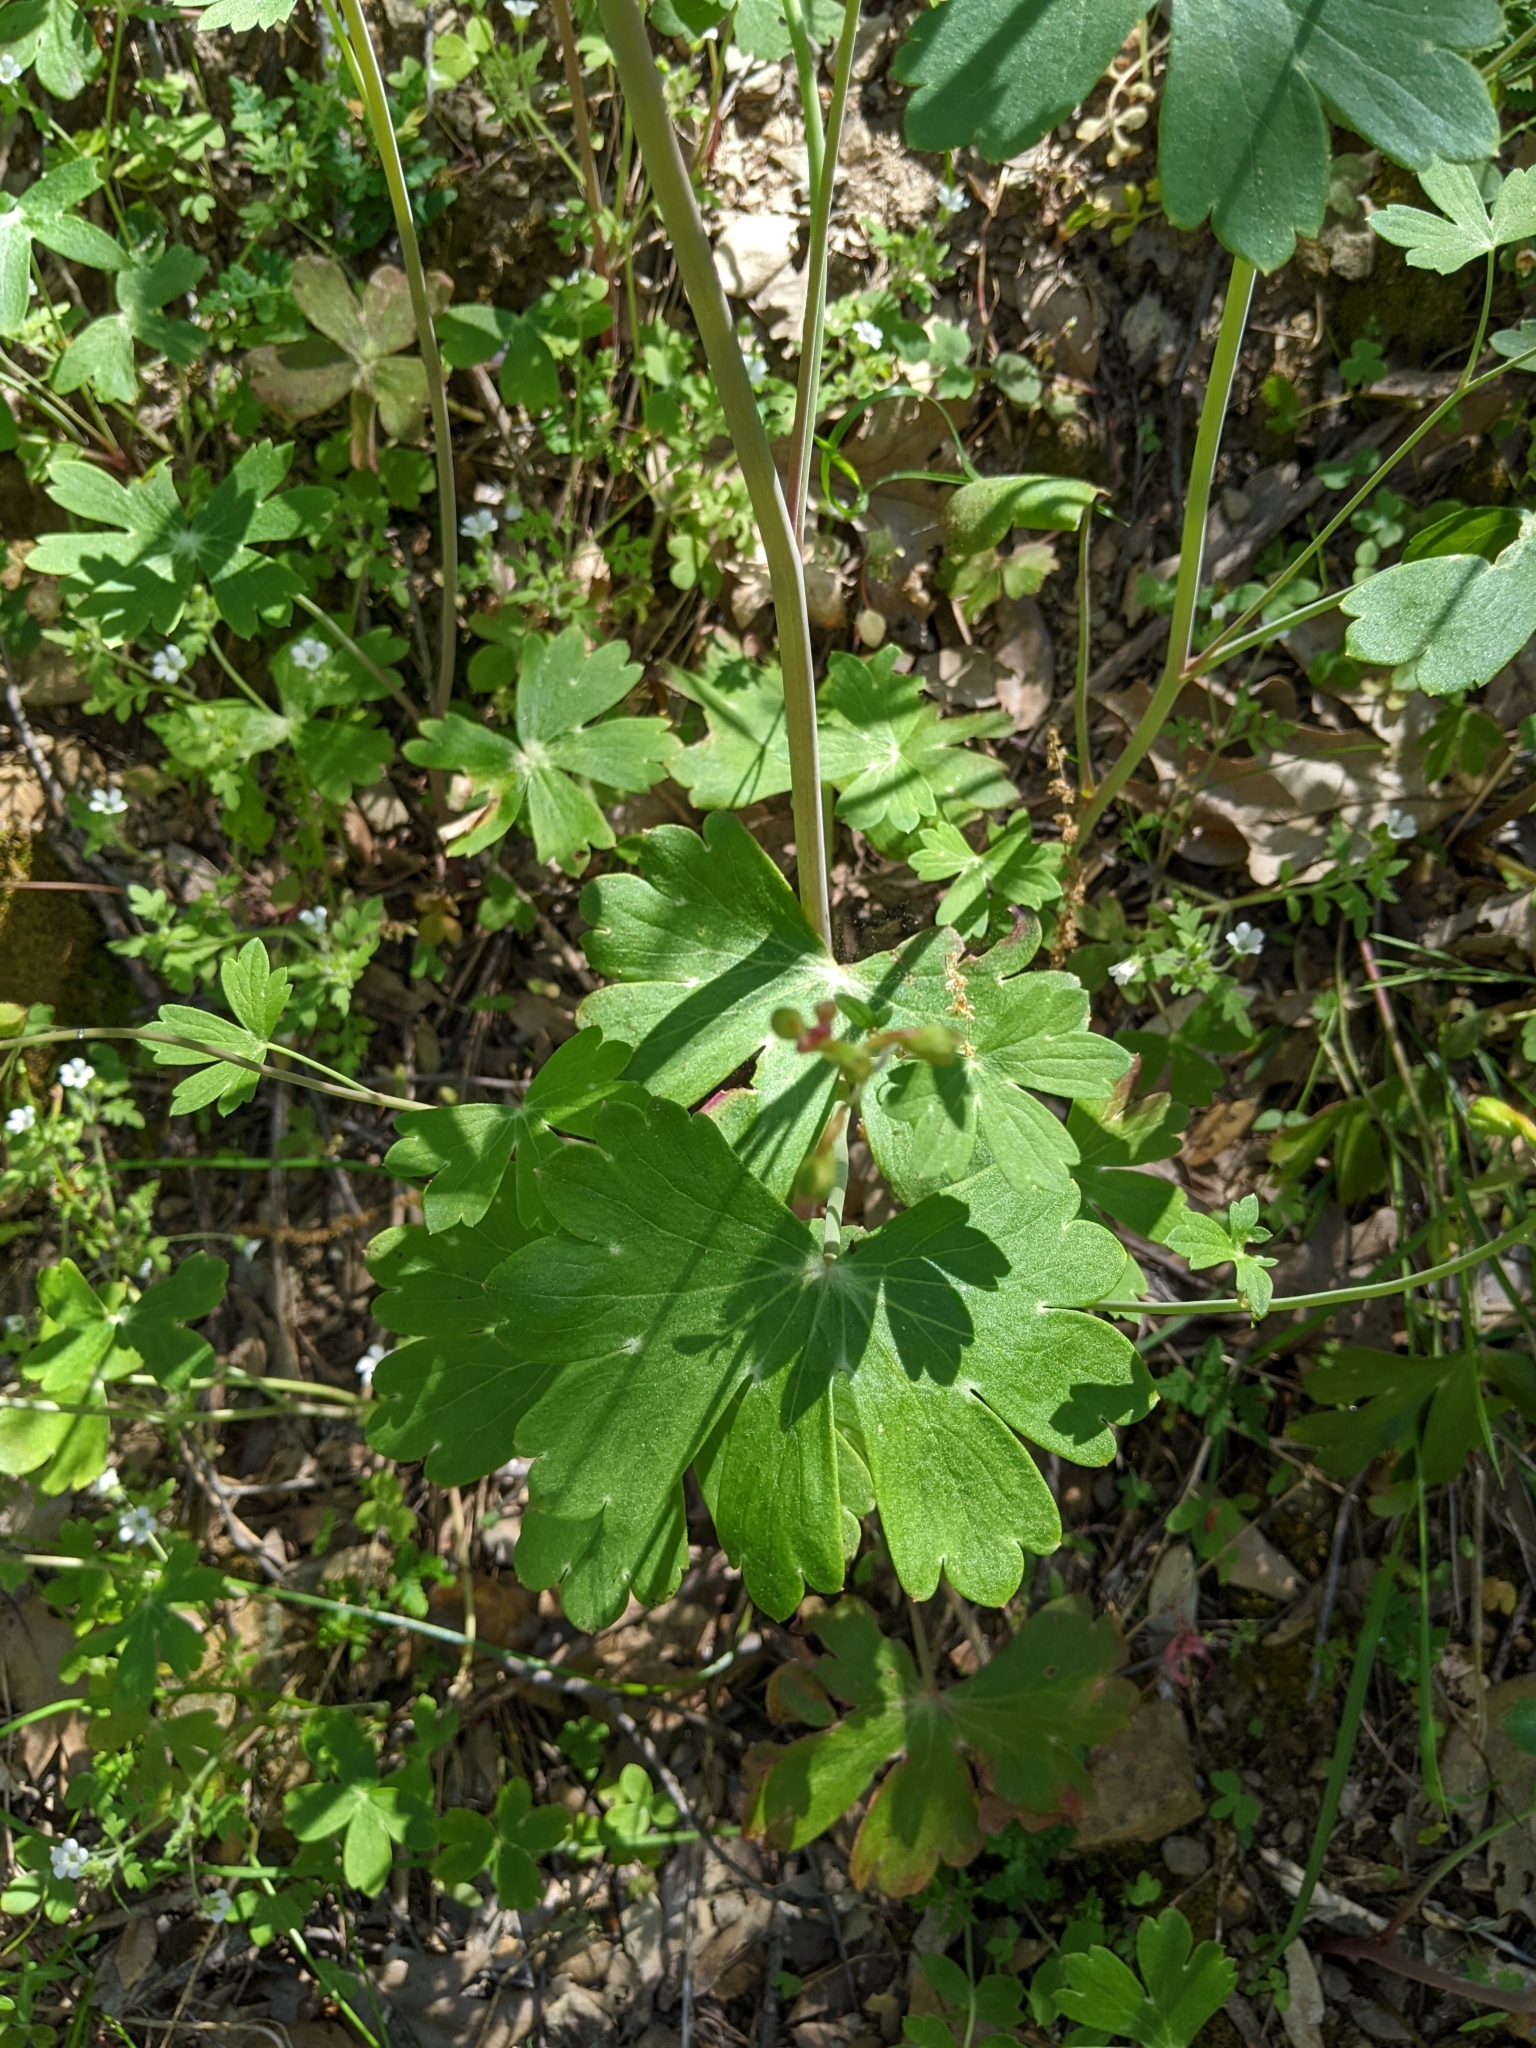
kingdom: Plantae
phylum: Tracheophyta
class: Magnoliopsida
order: Ranunculales
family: Ranunculaceae
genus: Delphinium
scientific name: Delphinium nudicaule
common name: Red larkspur
